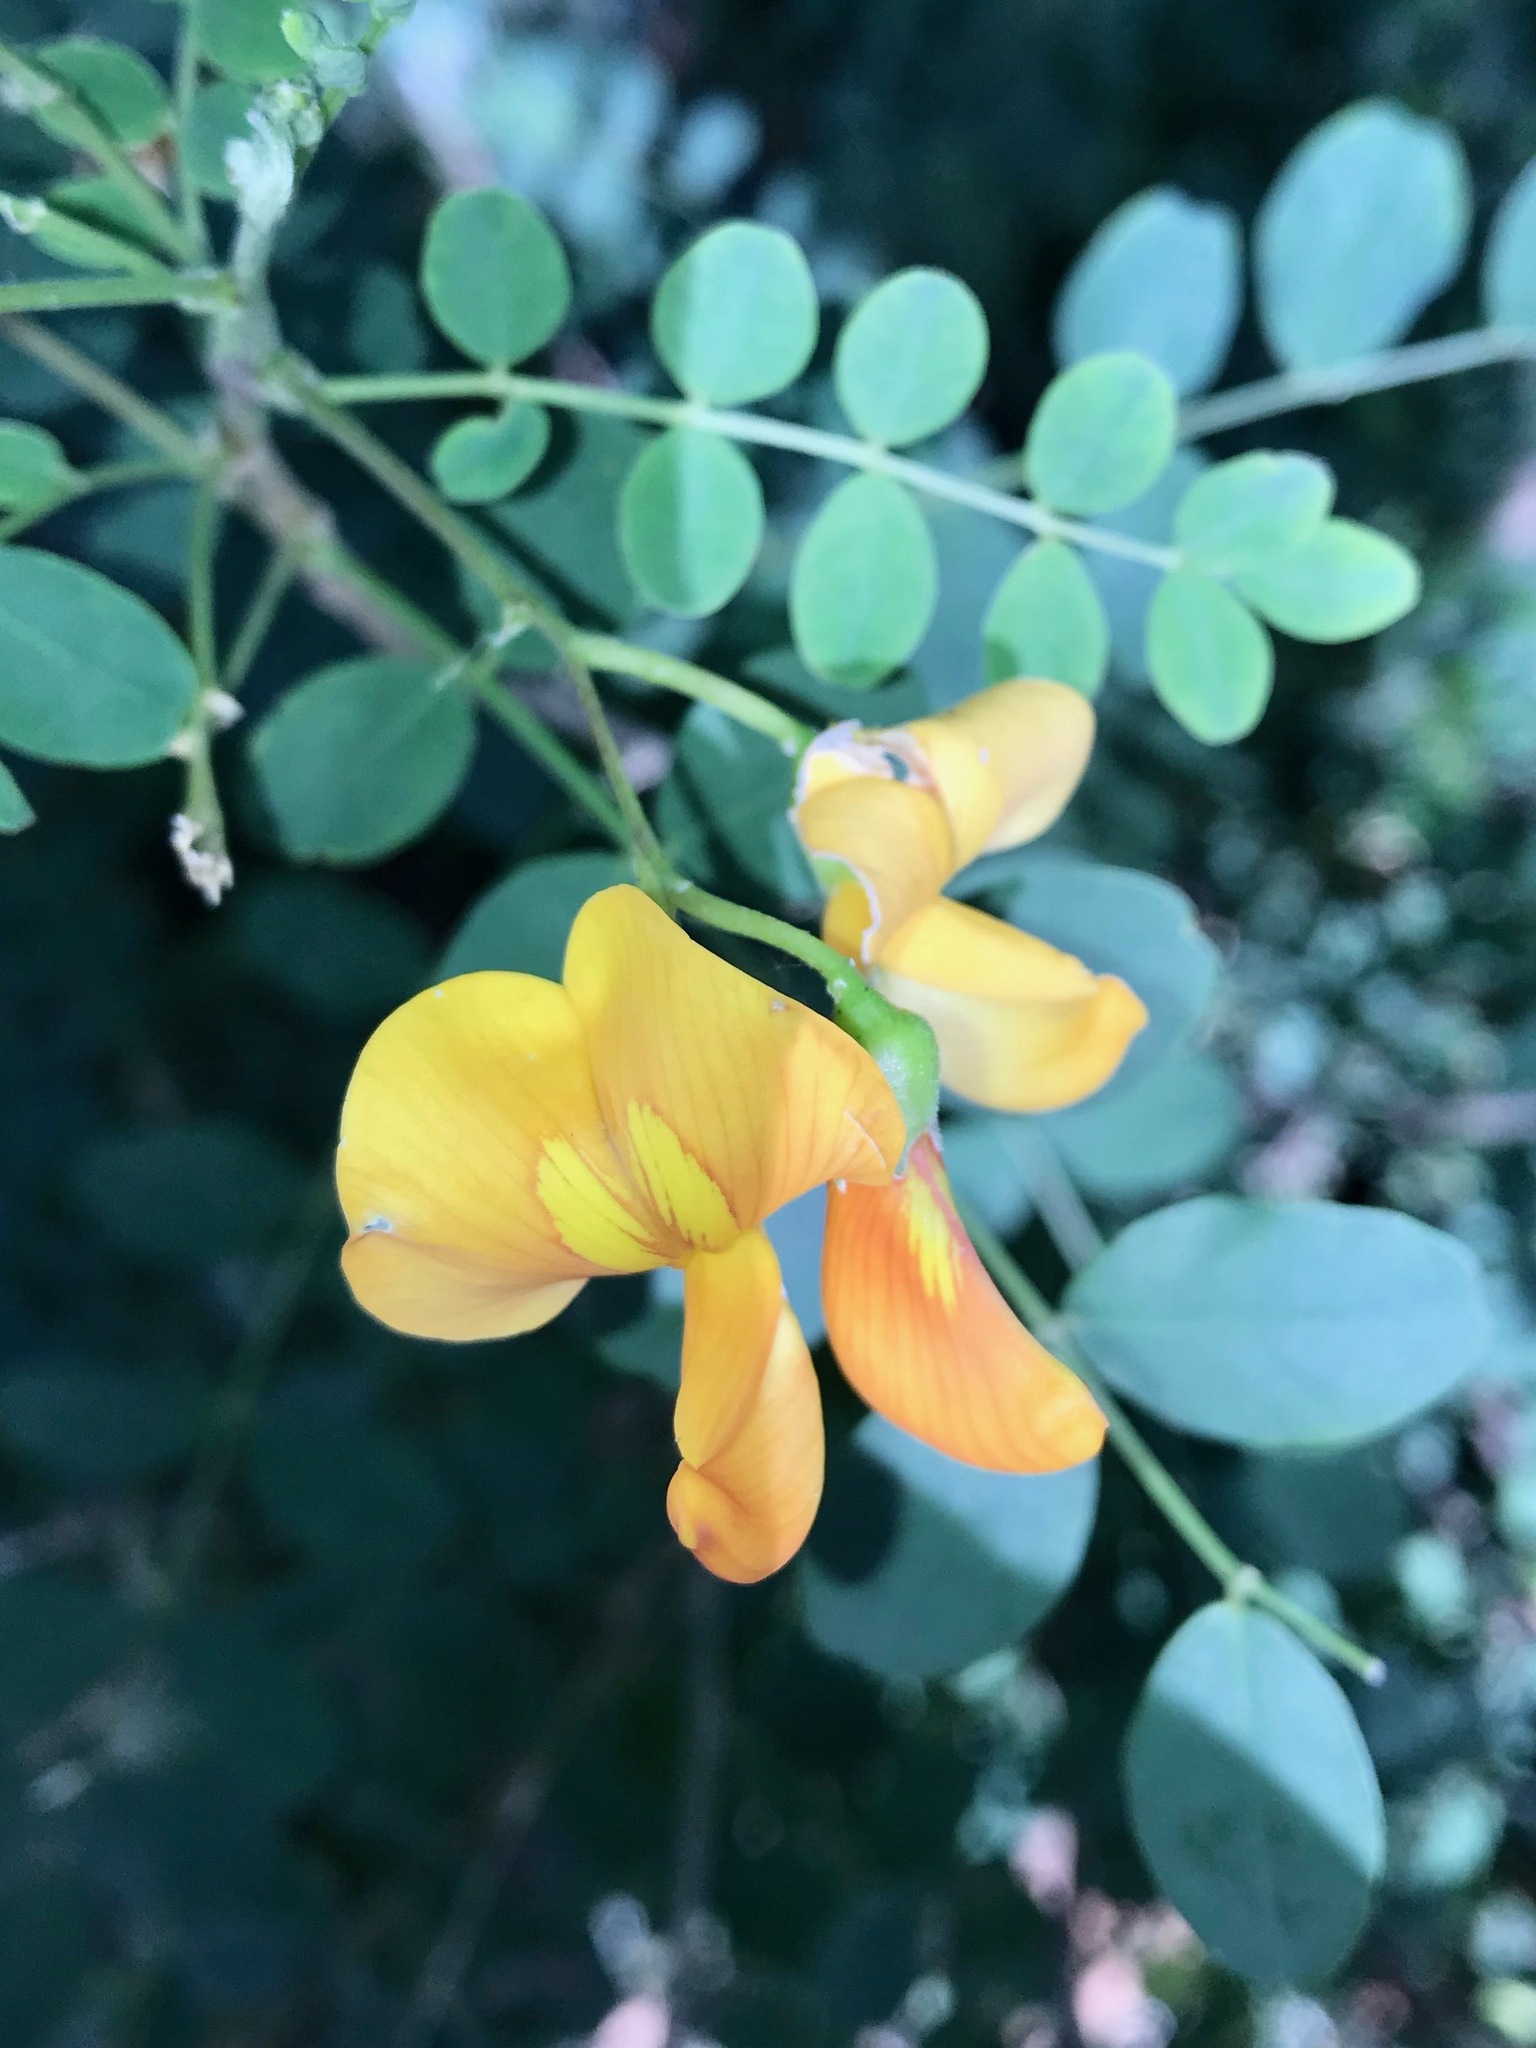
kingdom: Plantae
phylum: Tracheophyta
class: Magnoliopsida
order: Fabales
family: Fabaceae
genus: Colutea
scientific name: Colutea arborescens
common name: Bladder-senna
